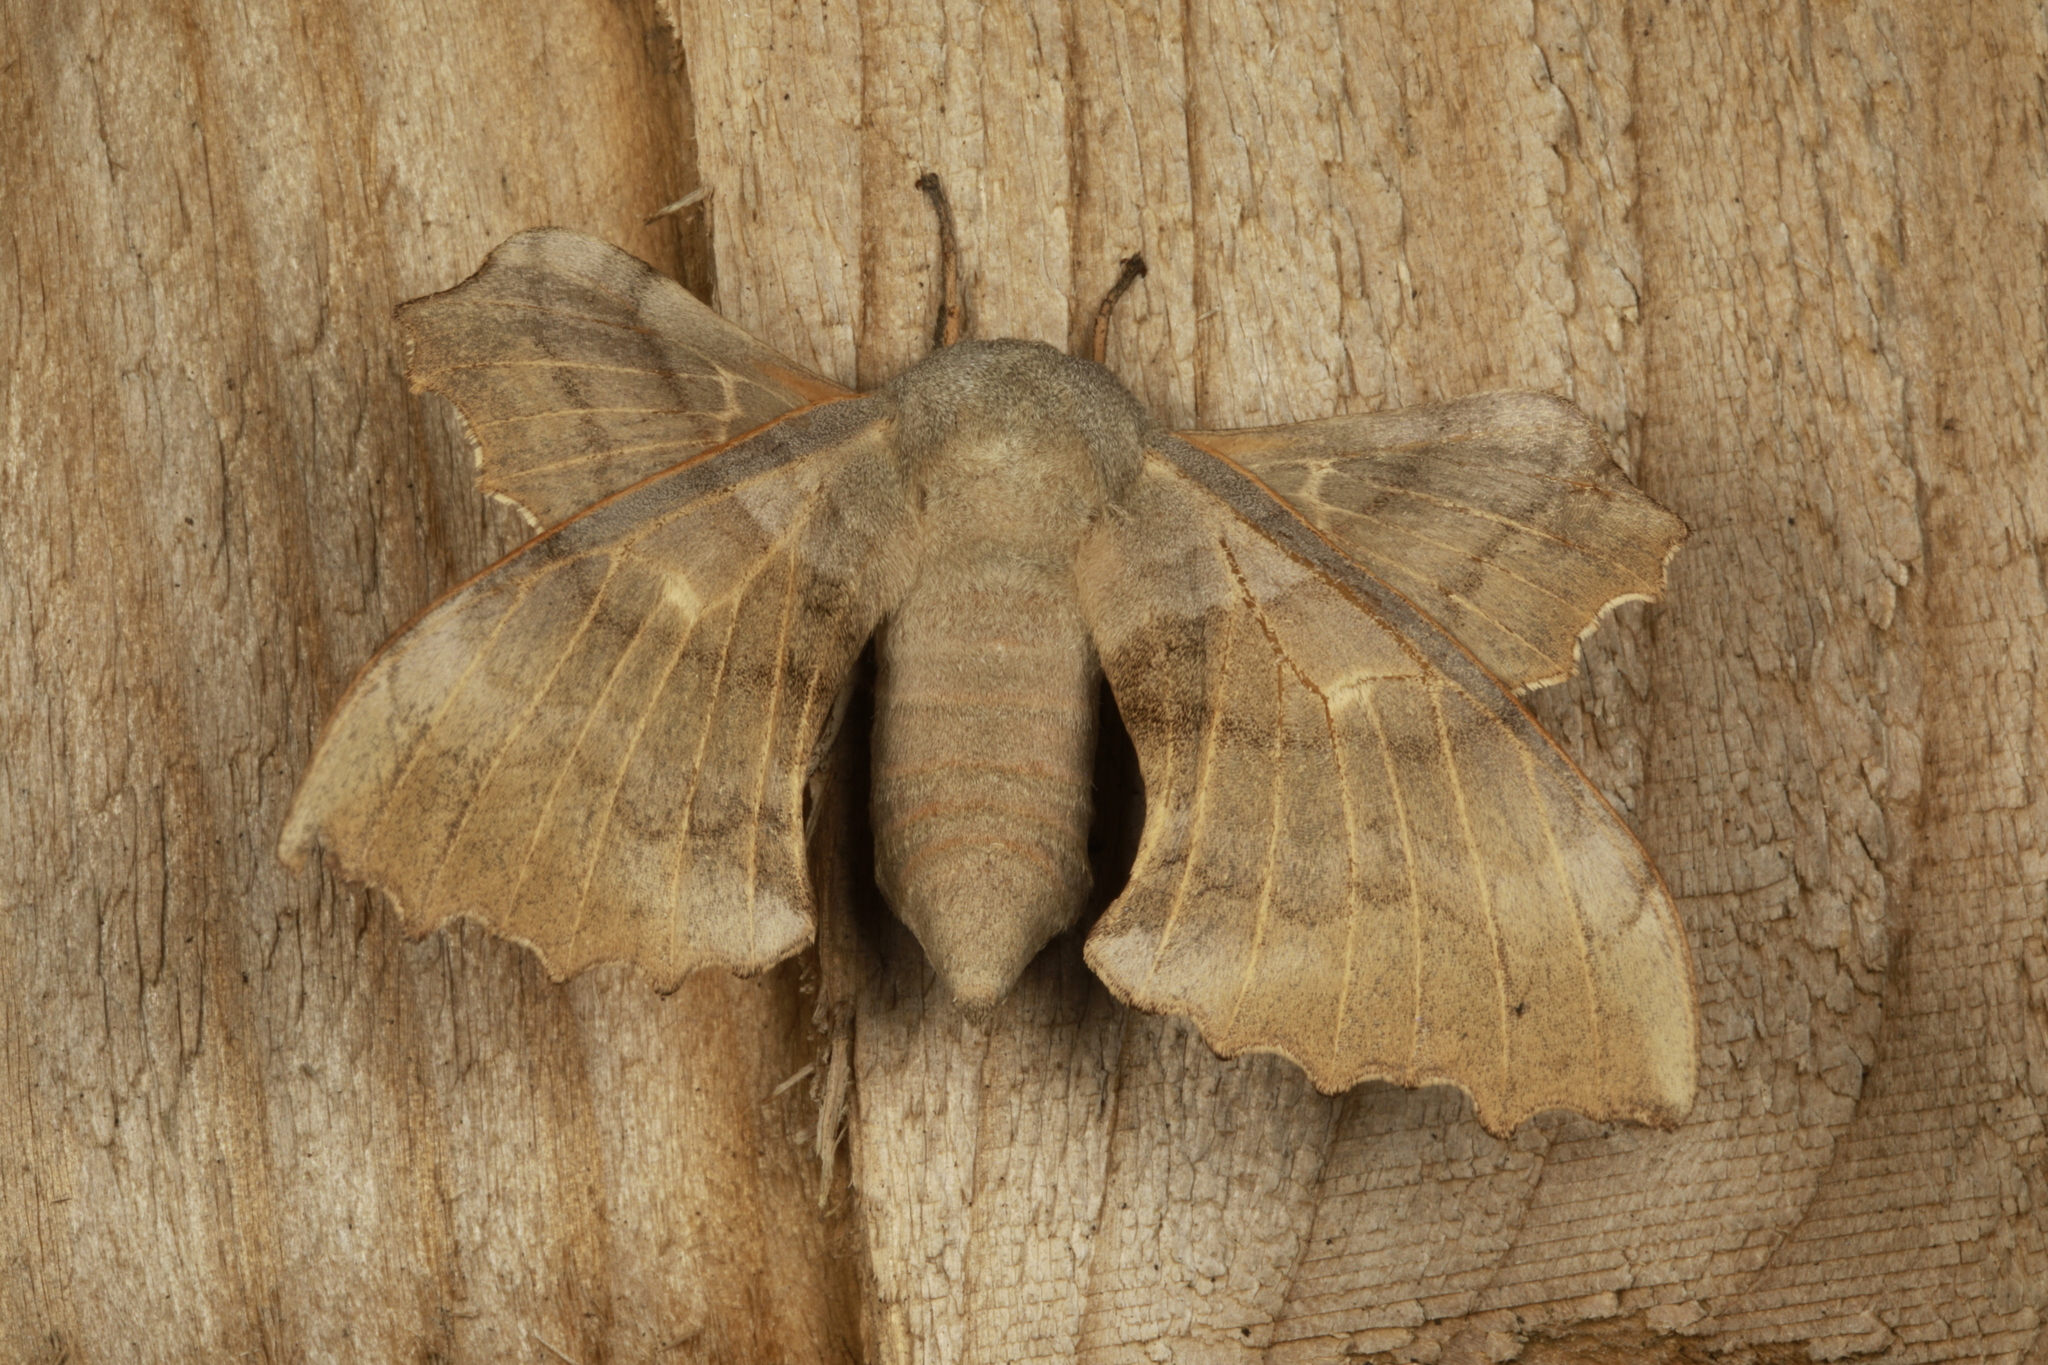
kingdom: Animalia
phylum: Arthropoda
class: Insecta
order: Lepidoptera
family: Sphingidae
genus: Laothoe
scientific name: Laothoe populi
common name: Poplar hawk-moth
